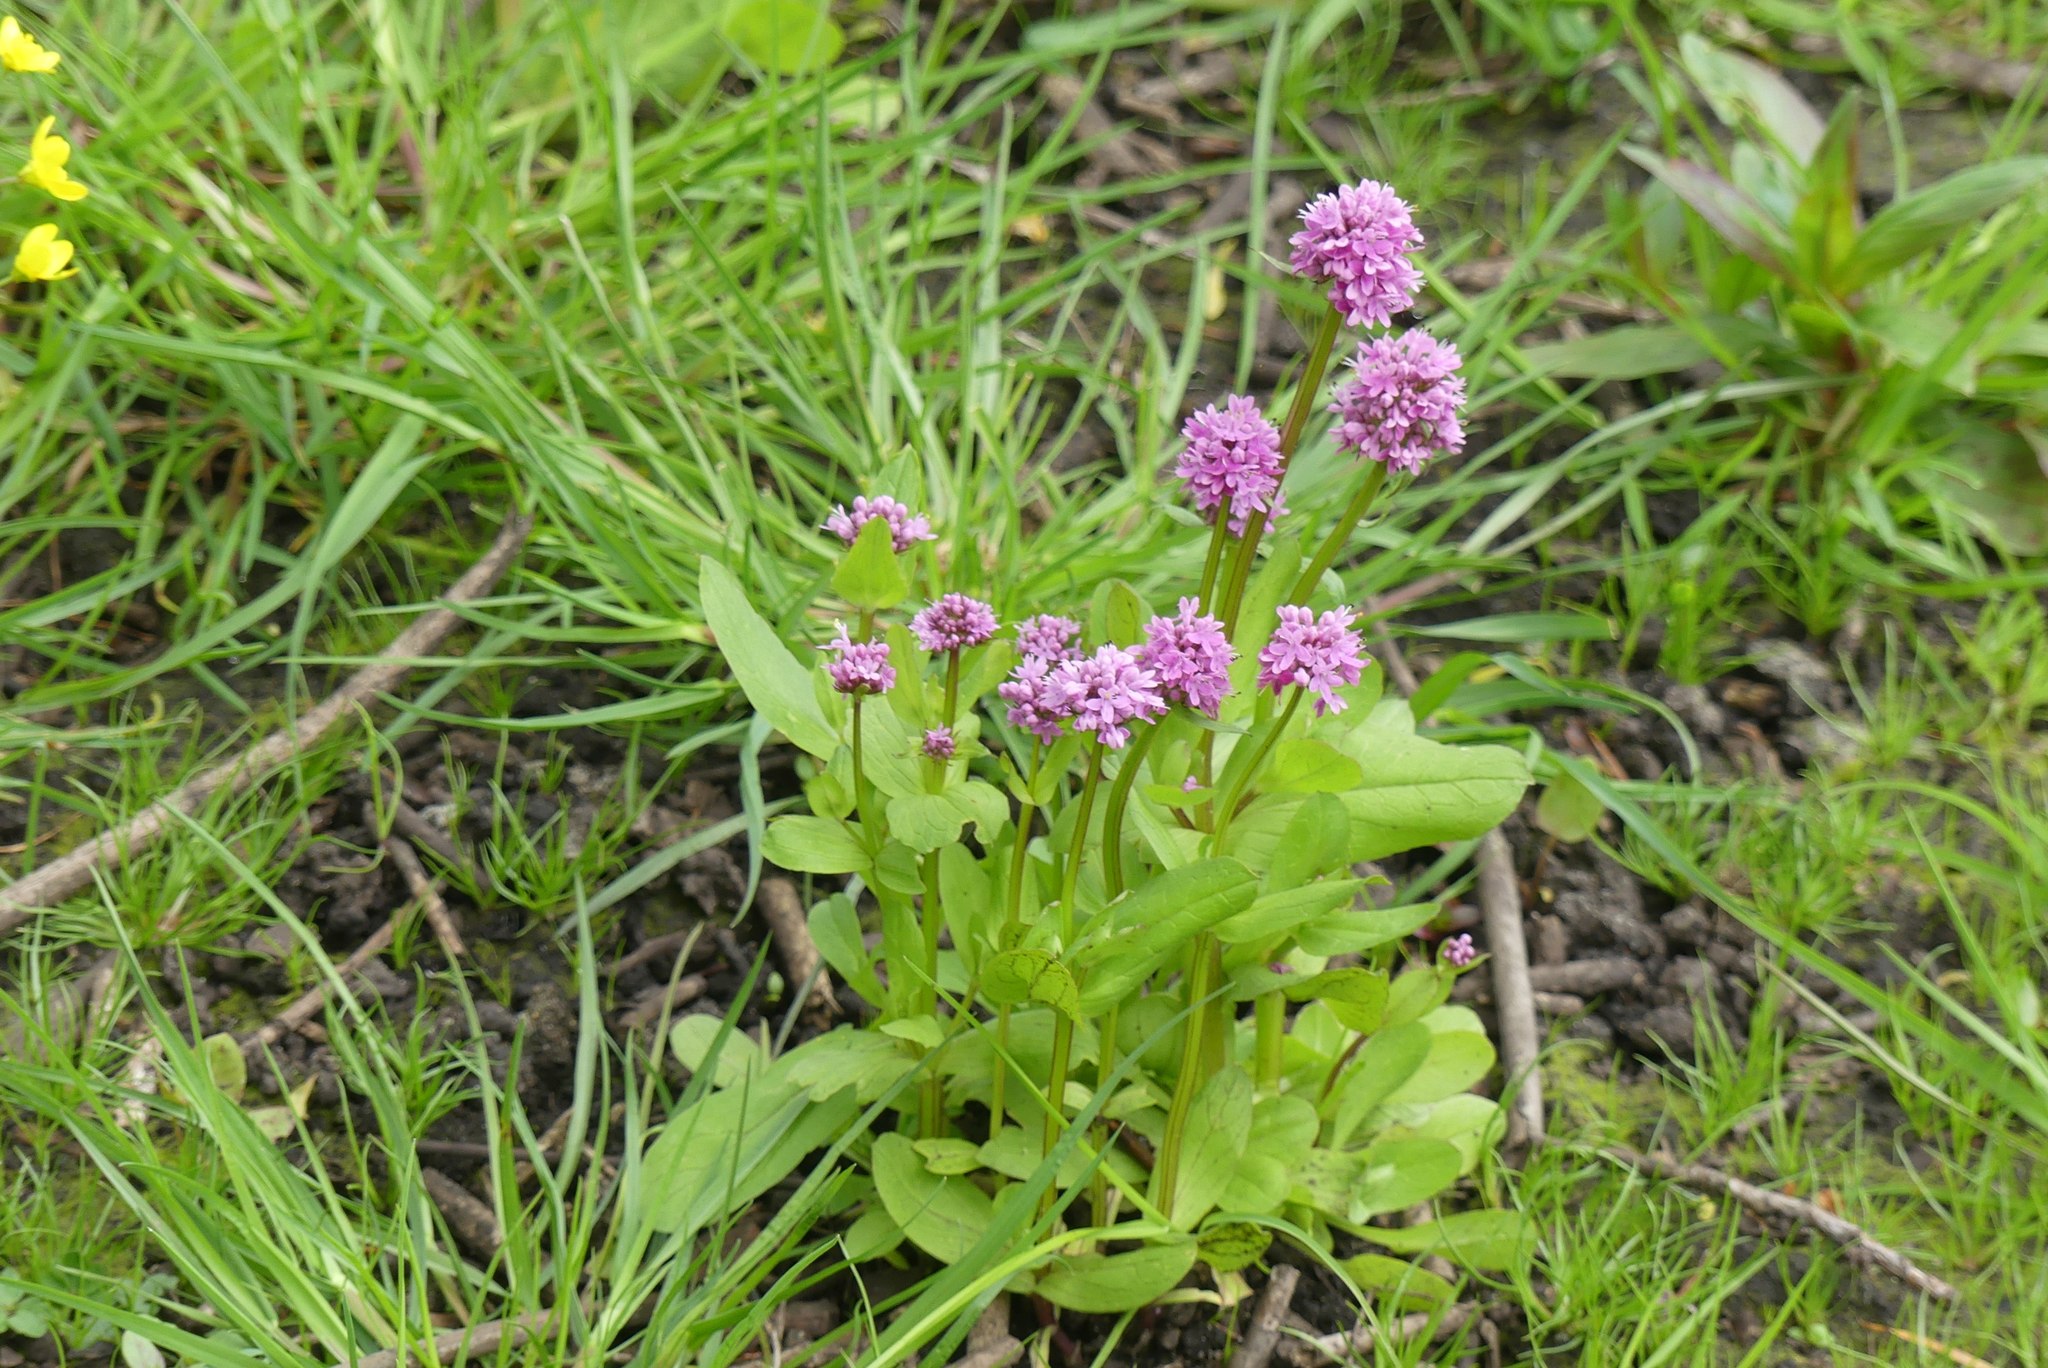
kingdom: Plantae
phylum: Tracheophyta
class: Magnoliopsida
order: Dipsacales
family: Caprifoliaceae
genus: Plectritis
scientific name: Plectritis congesta
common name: Pink plectritis
